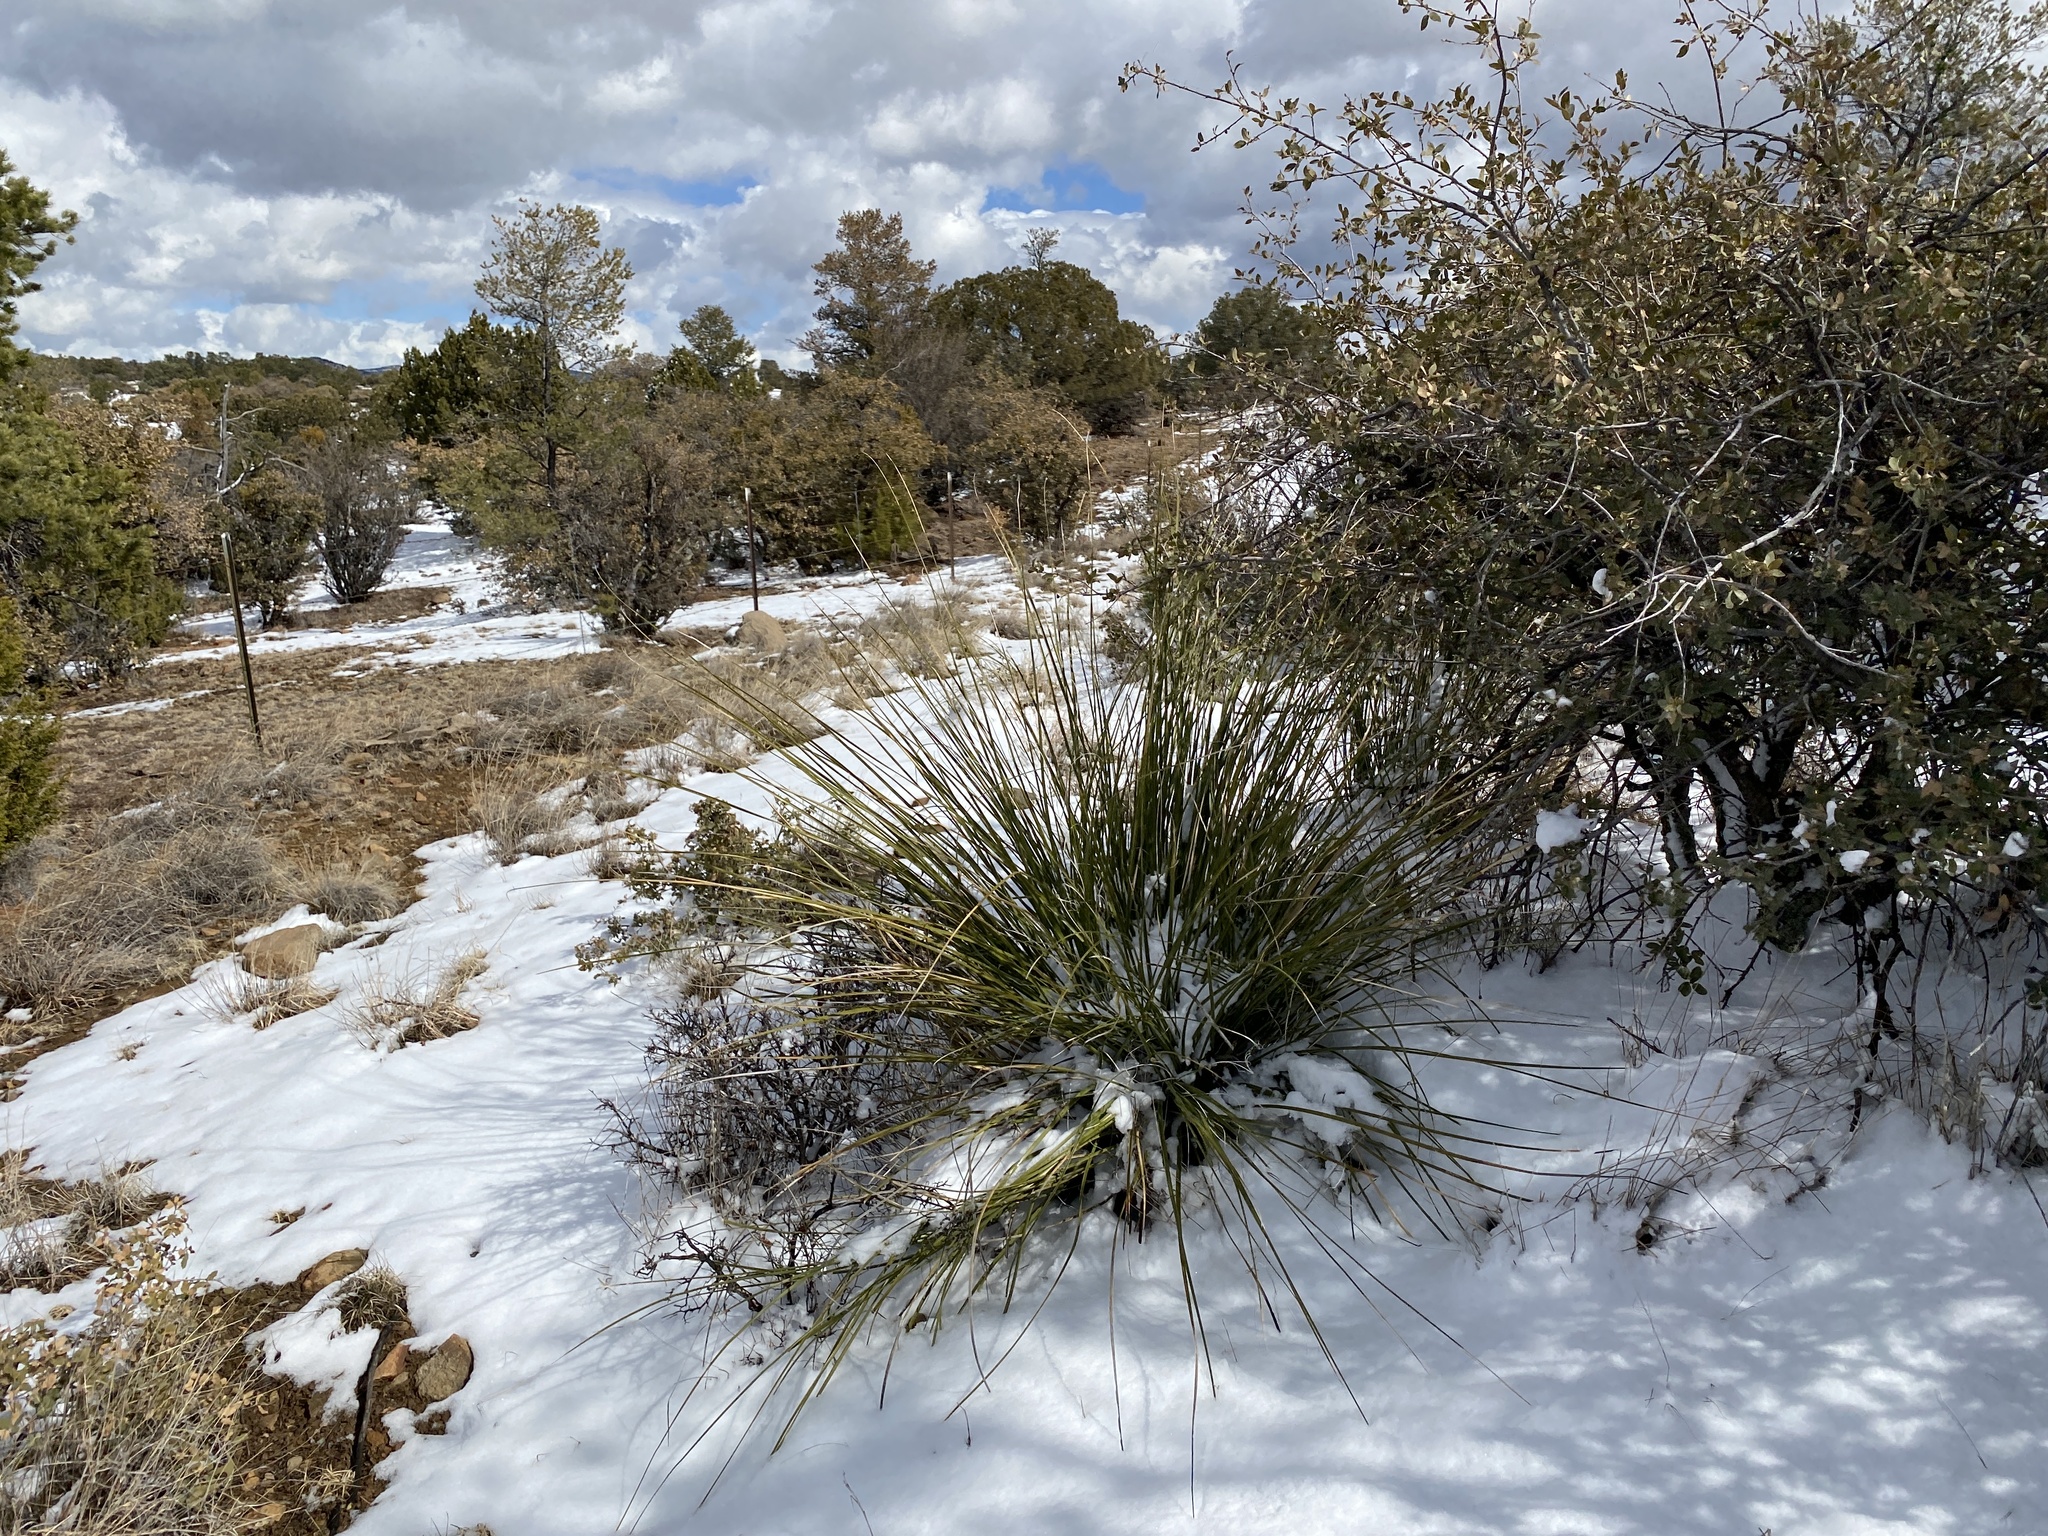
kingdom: Plantae
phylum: Tracheophyta
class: Liliopsida
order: Asparagales
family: Asparagaceae
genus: Nolina
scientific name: Nolina microcarpa
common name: Bear-grass
